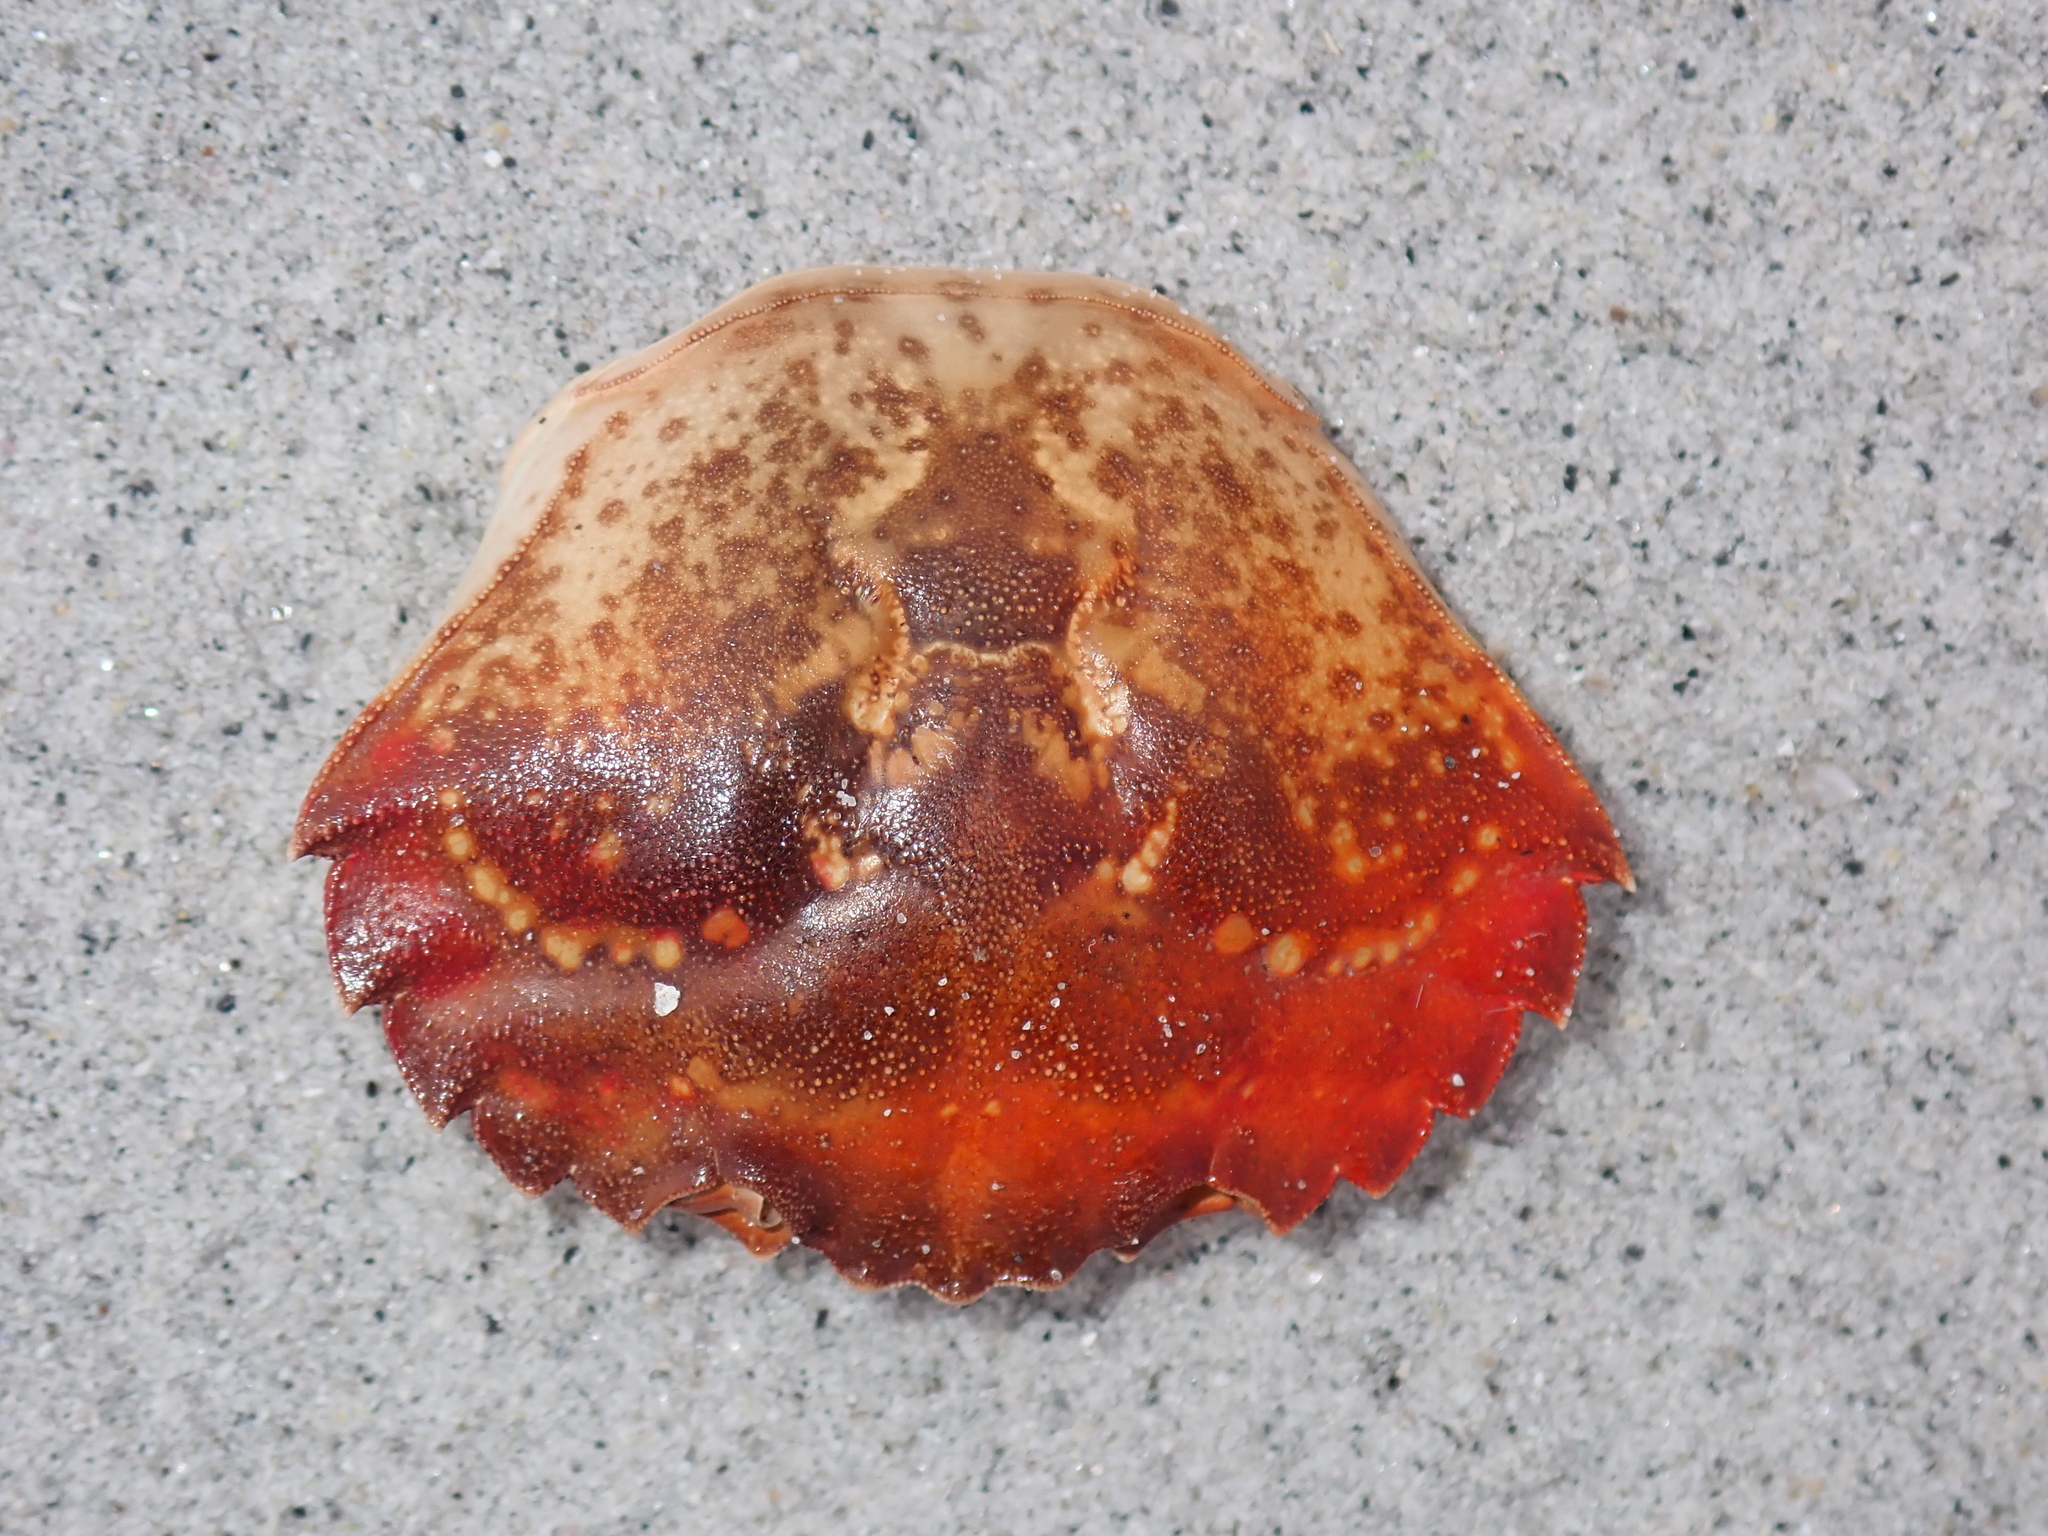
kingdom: Animalia
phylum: Arthropoda
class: Malacostraca
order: Decapoda
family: Carcinidae
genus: Carcinus
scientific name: Carcinus maenas
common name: European green crab
